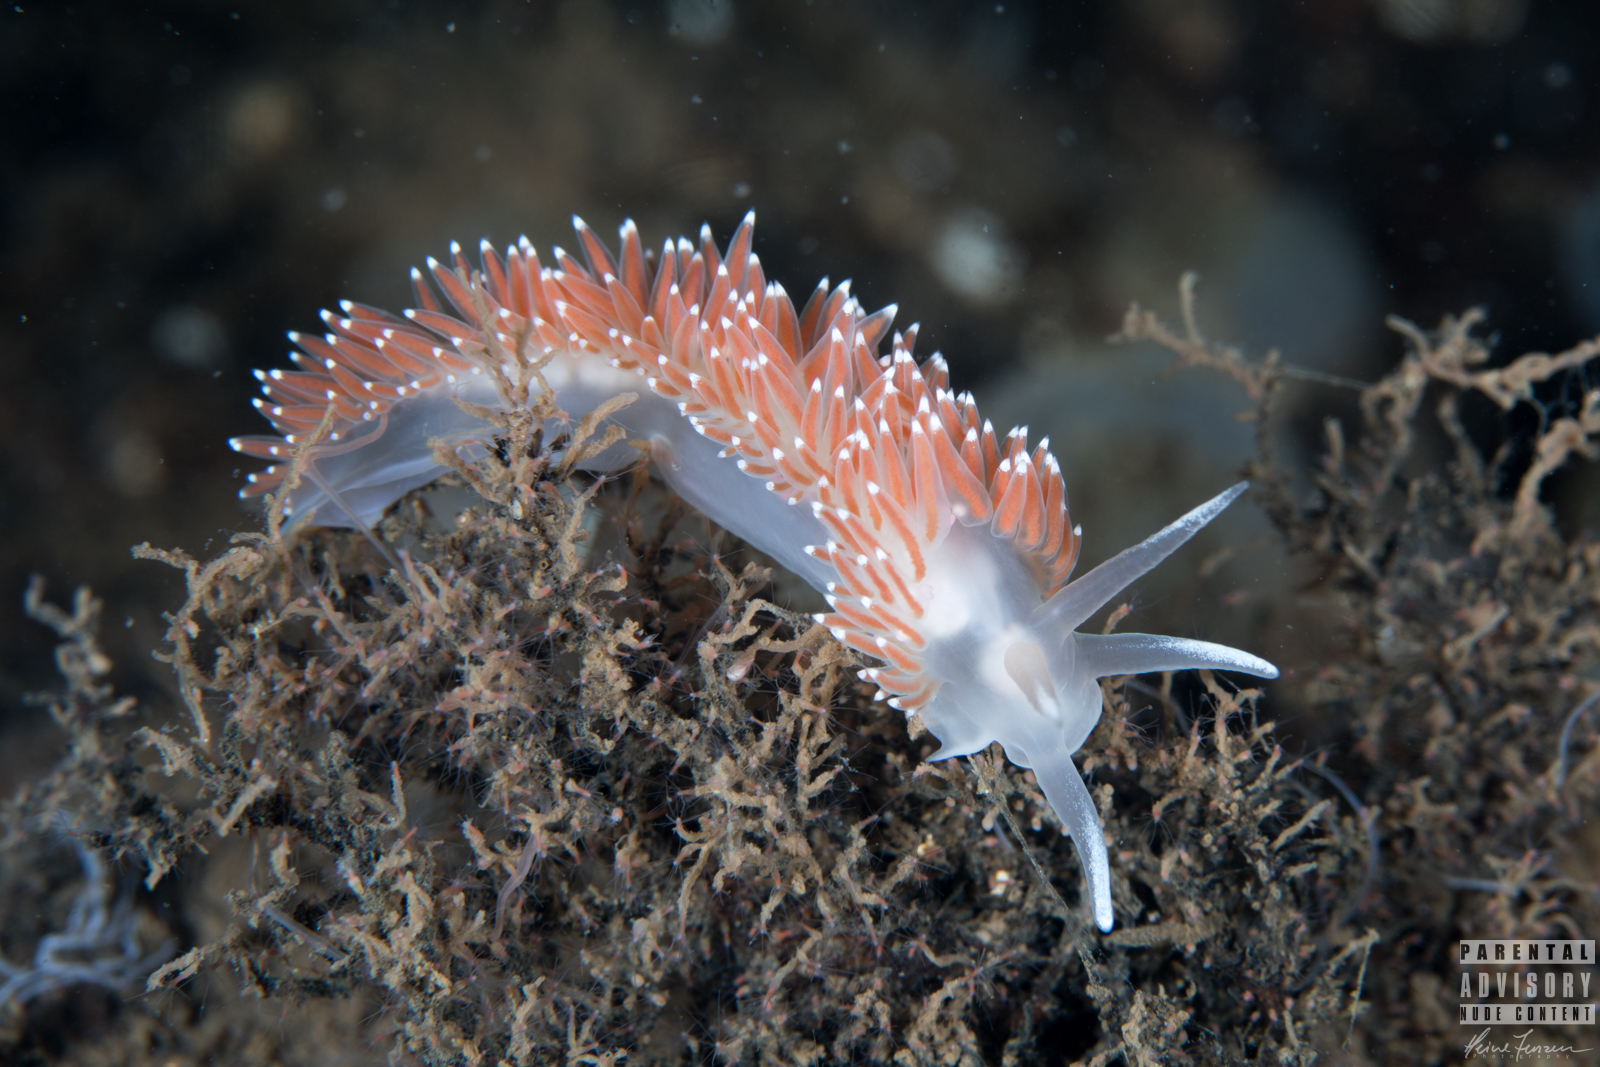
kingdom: Animalia
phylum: Mollusca
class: Gastropoda
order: Nudibranchia
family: Coryphellidae
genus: Coryphella
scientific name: Coryphella verrucosa
